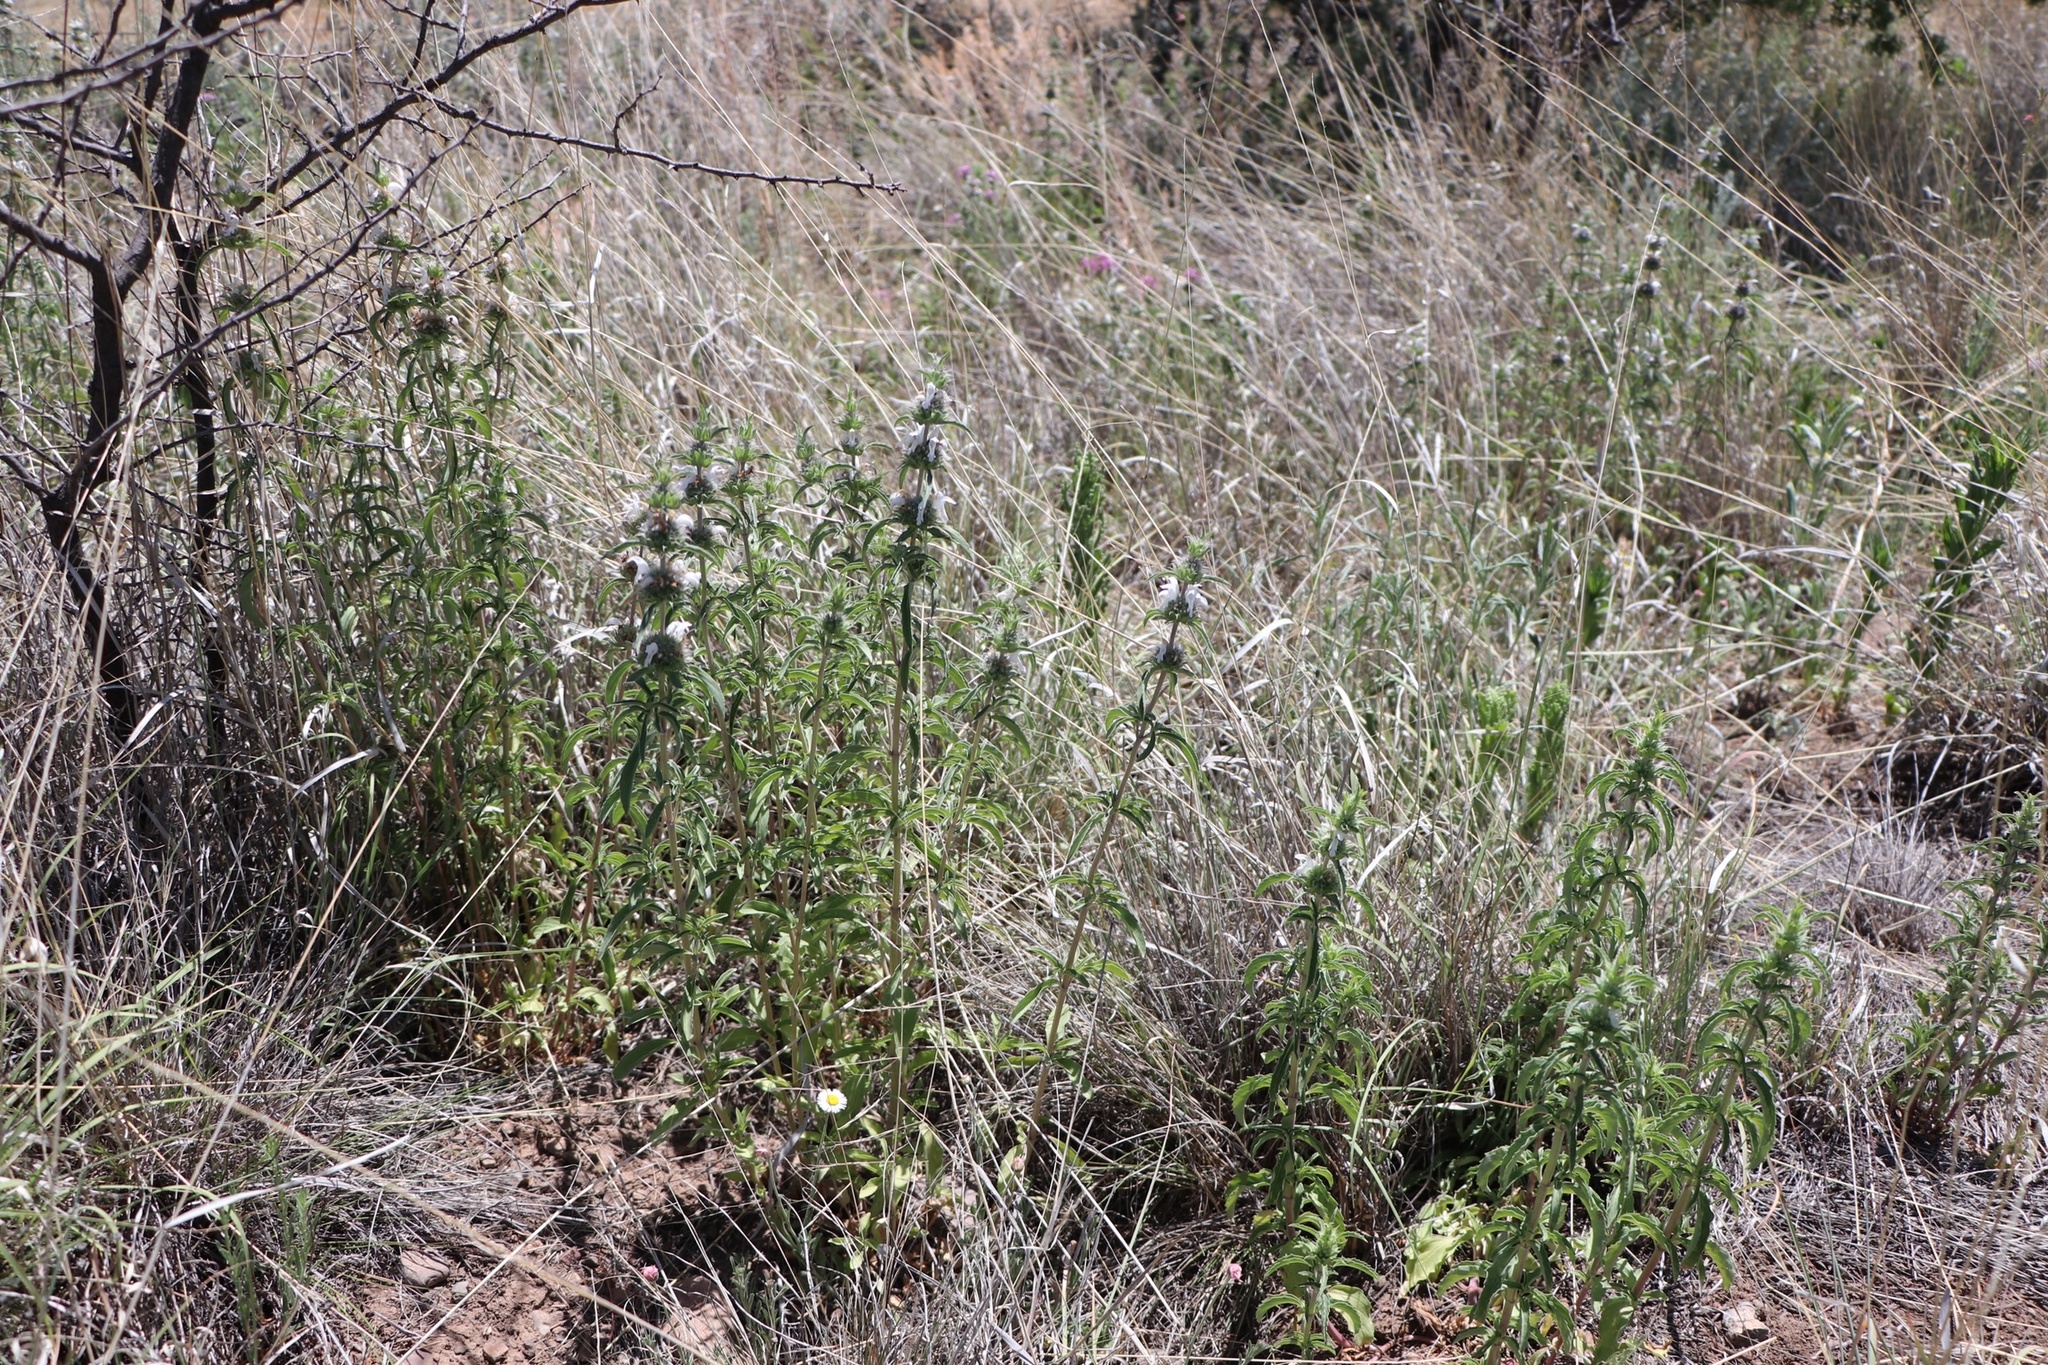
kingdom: Plantae
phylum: Tracheophyta
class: Magnoliopsida
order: Lamiales
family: Lamiaceae
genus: Monarda
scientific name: Monarda pectinata
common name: Plains beebalm
